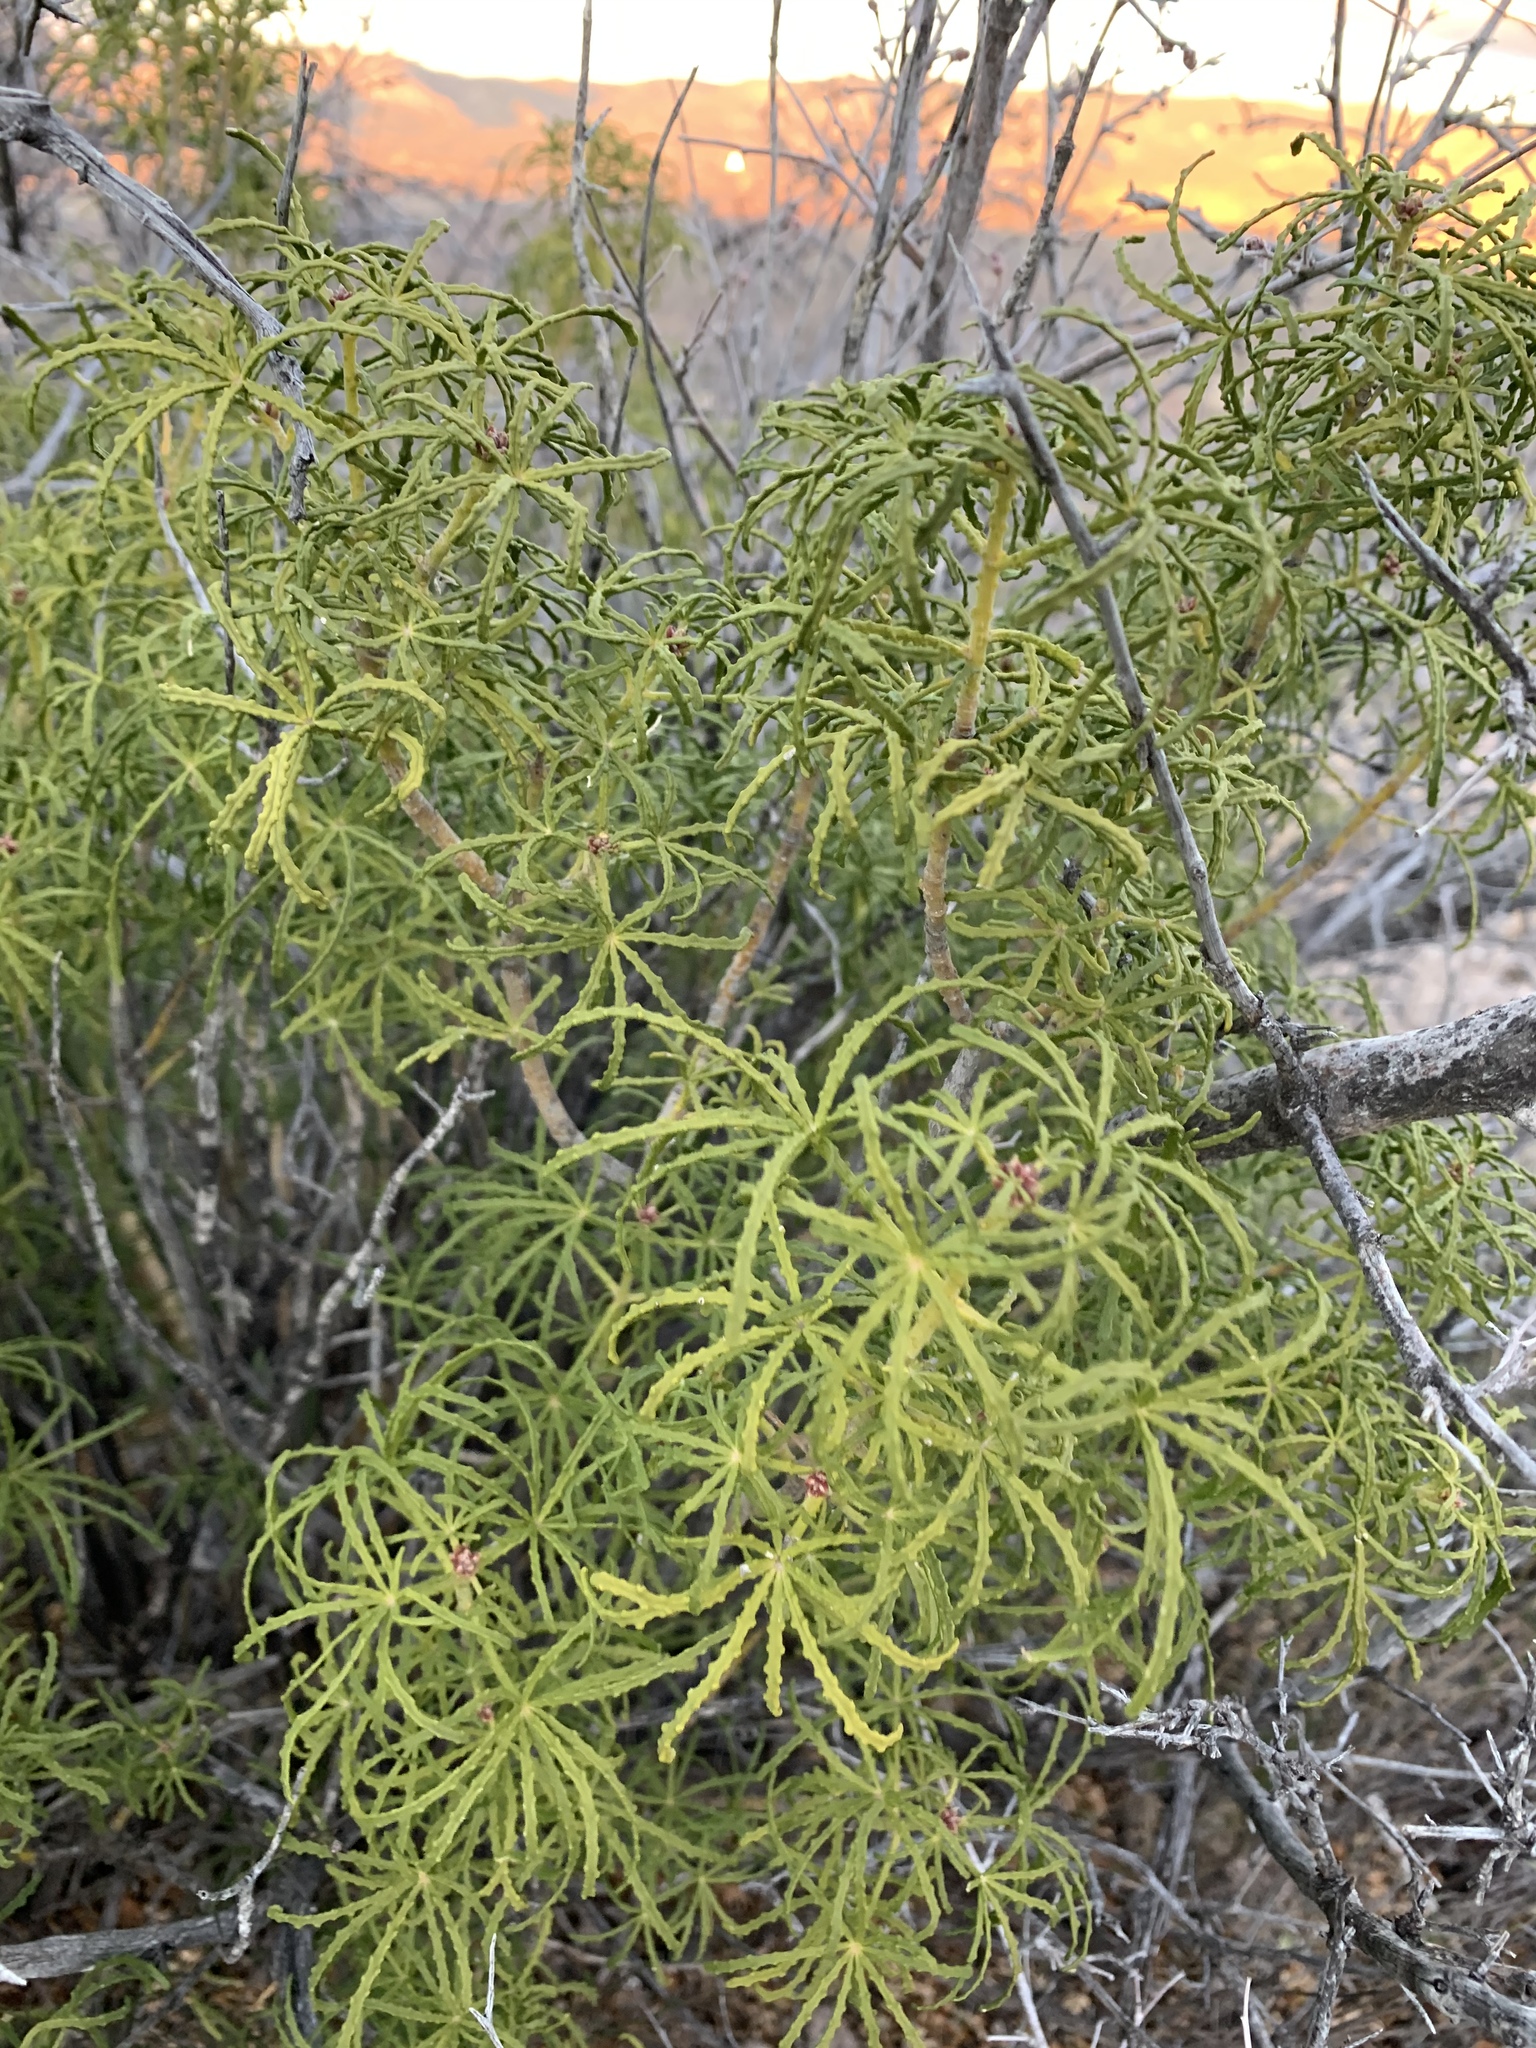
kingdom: Plantae
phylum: Tracheophyta
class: Magnoliopsida
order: Sapindales
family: Rutaceae
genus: Choisya
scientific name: Choisya dumosa
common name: Mexican-orange
